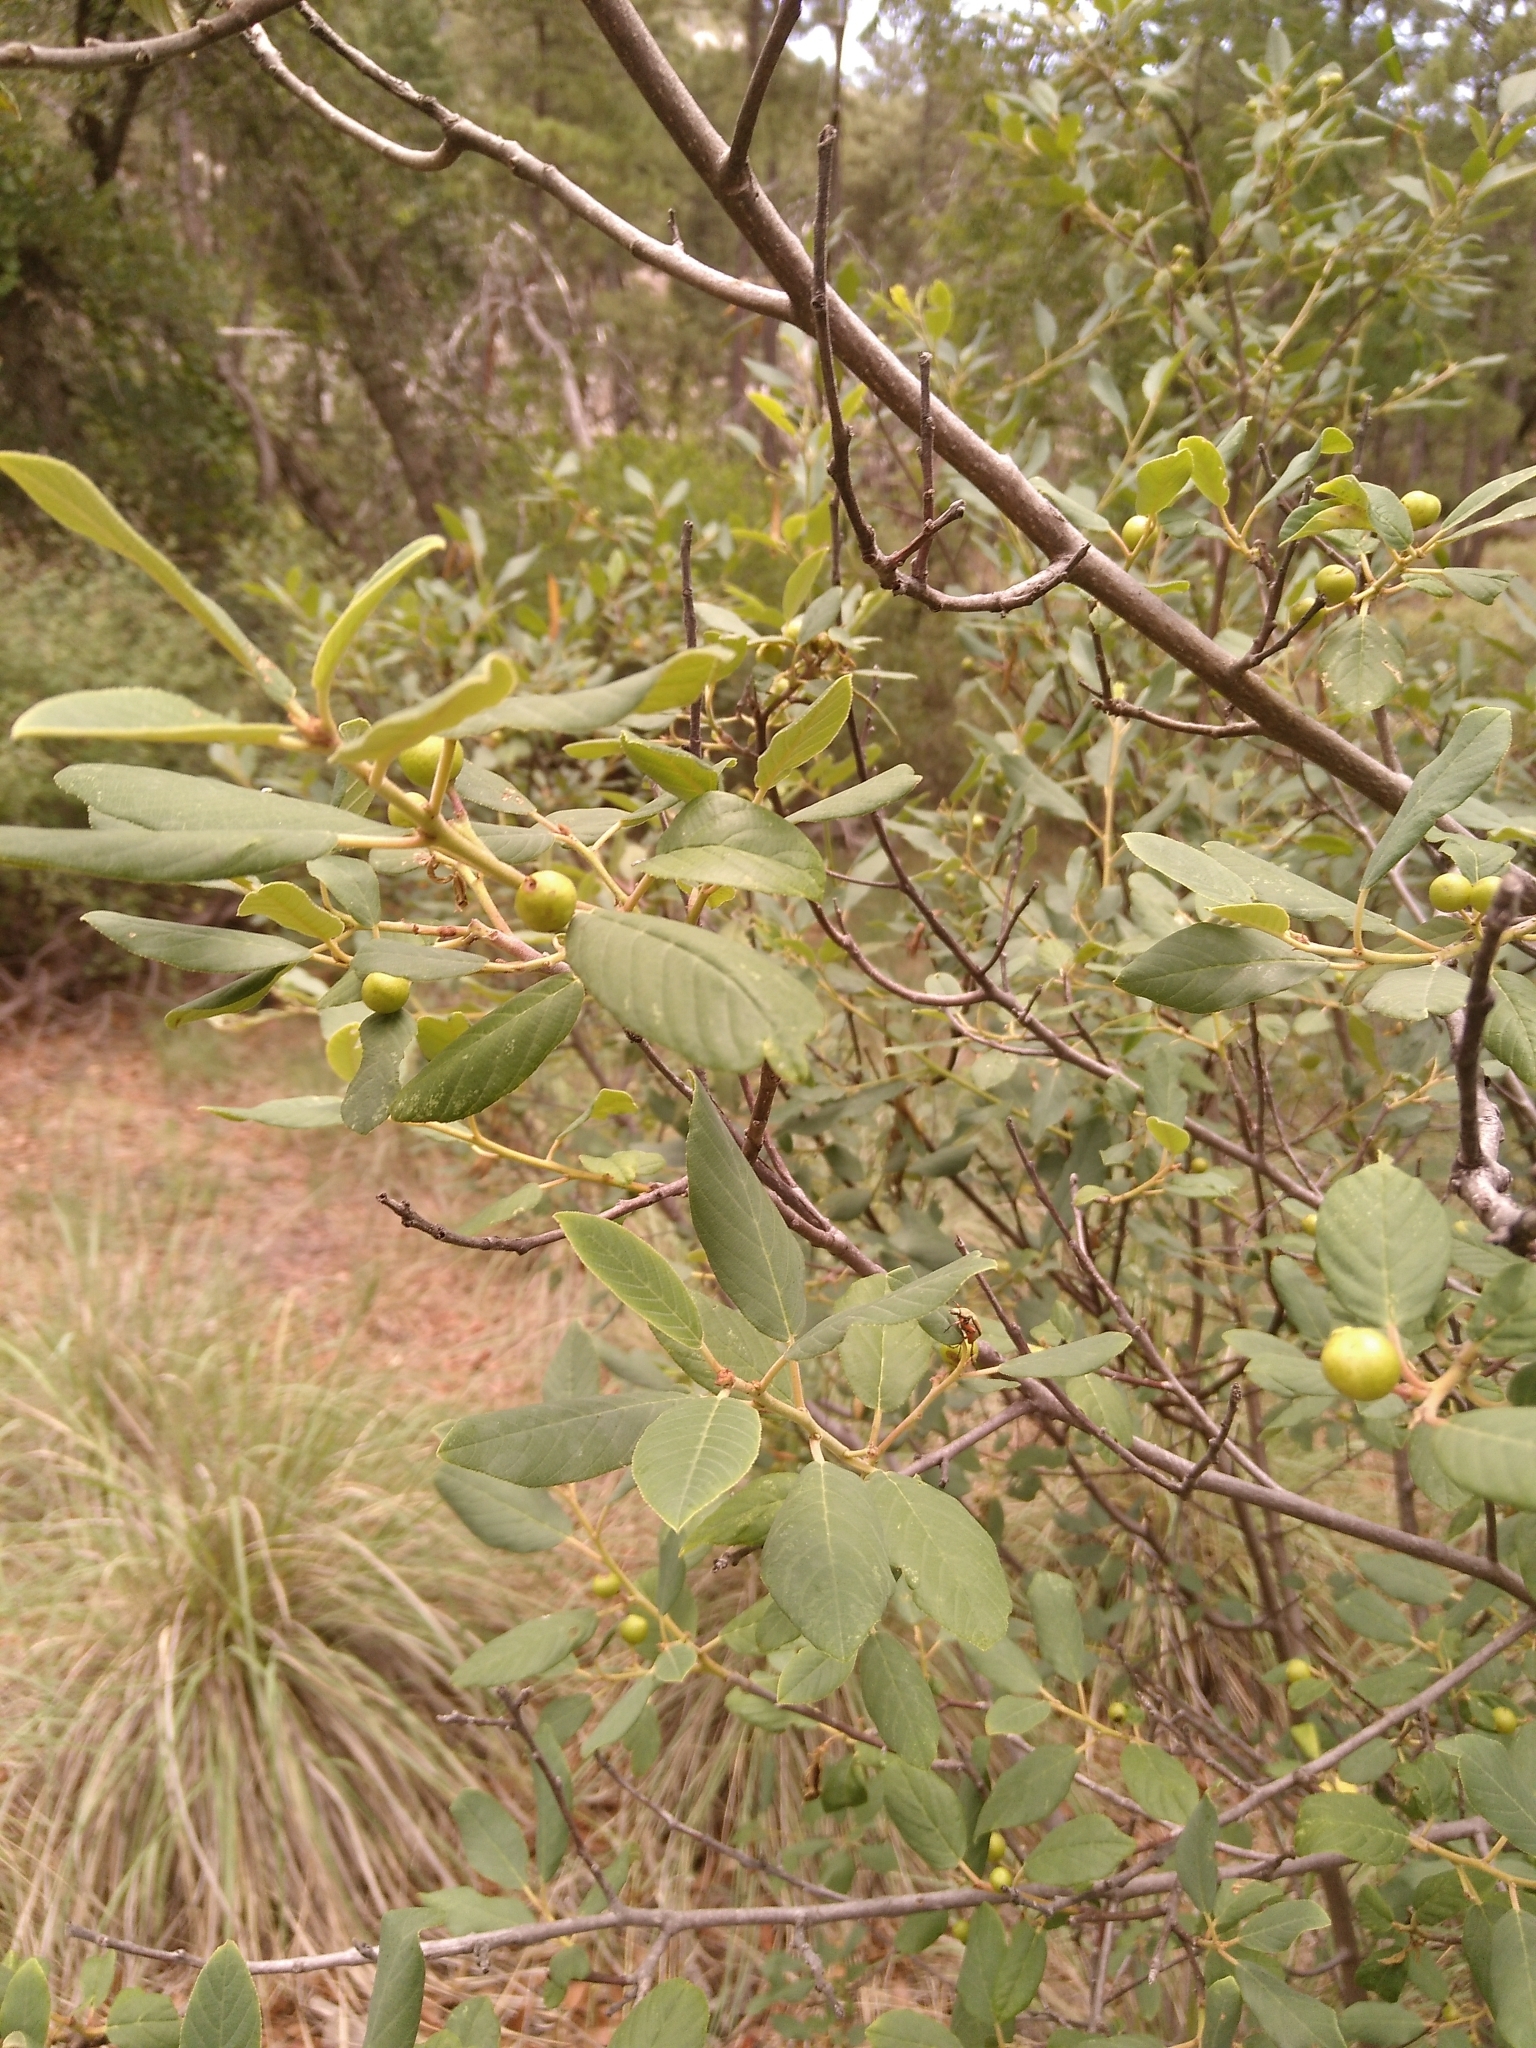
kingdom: Plantae
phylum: Tracheophyta
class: Magnoliopsida
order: Rosales
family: Rhamnaceae
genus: Frangula
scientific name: Frangula californica
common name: California buckthorn
